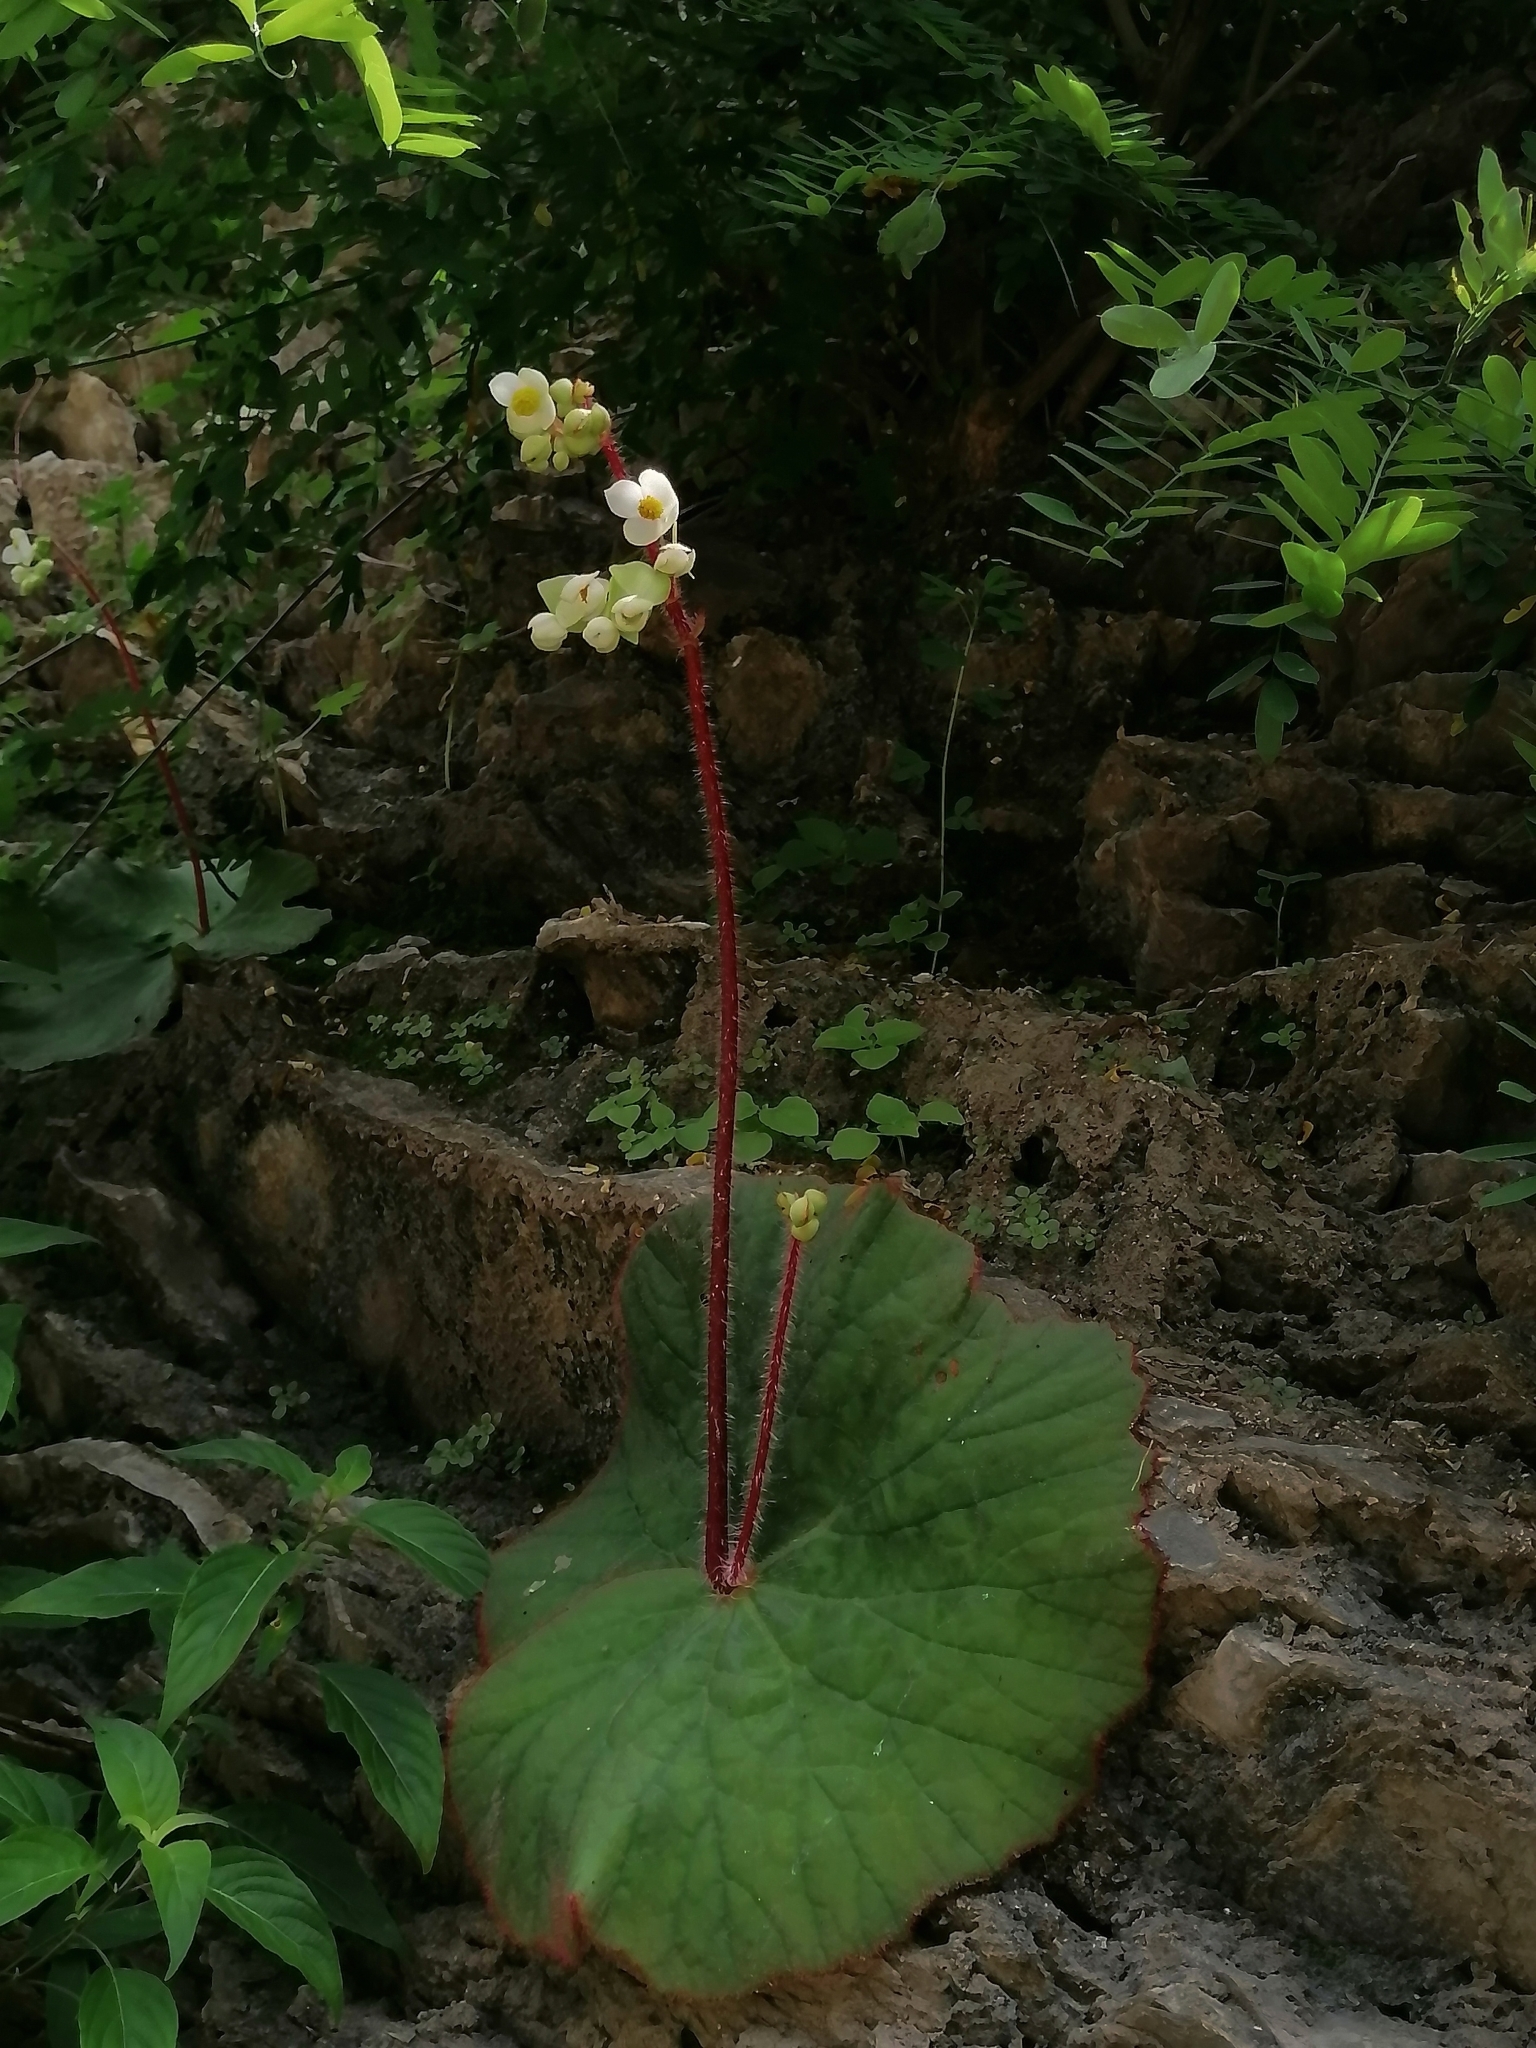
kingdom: Plantae
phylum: Tracheophyta
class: Magnoliopsida
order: Cucurbitales
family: Begoniaceae
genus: Begonia
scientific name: Begonia monophylla
